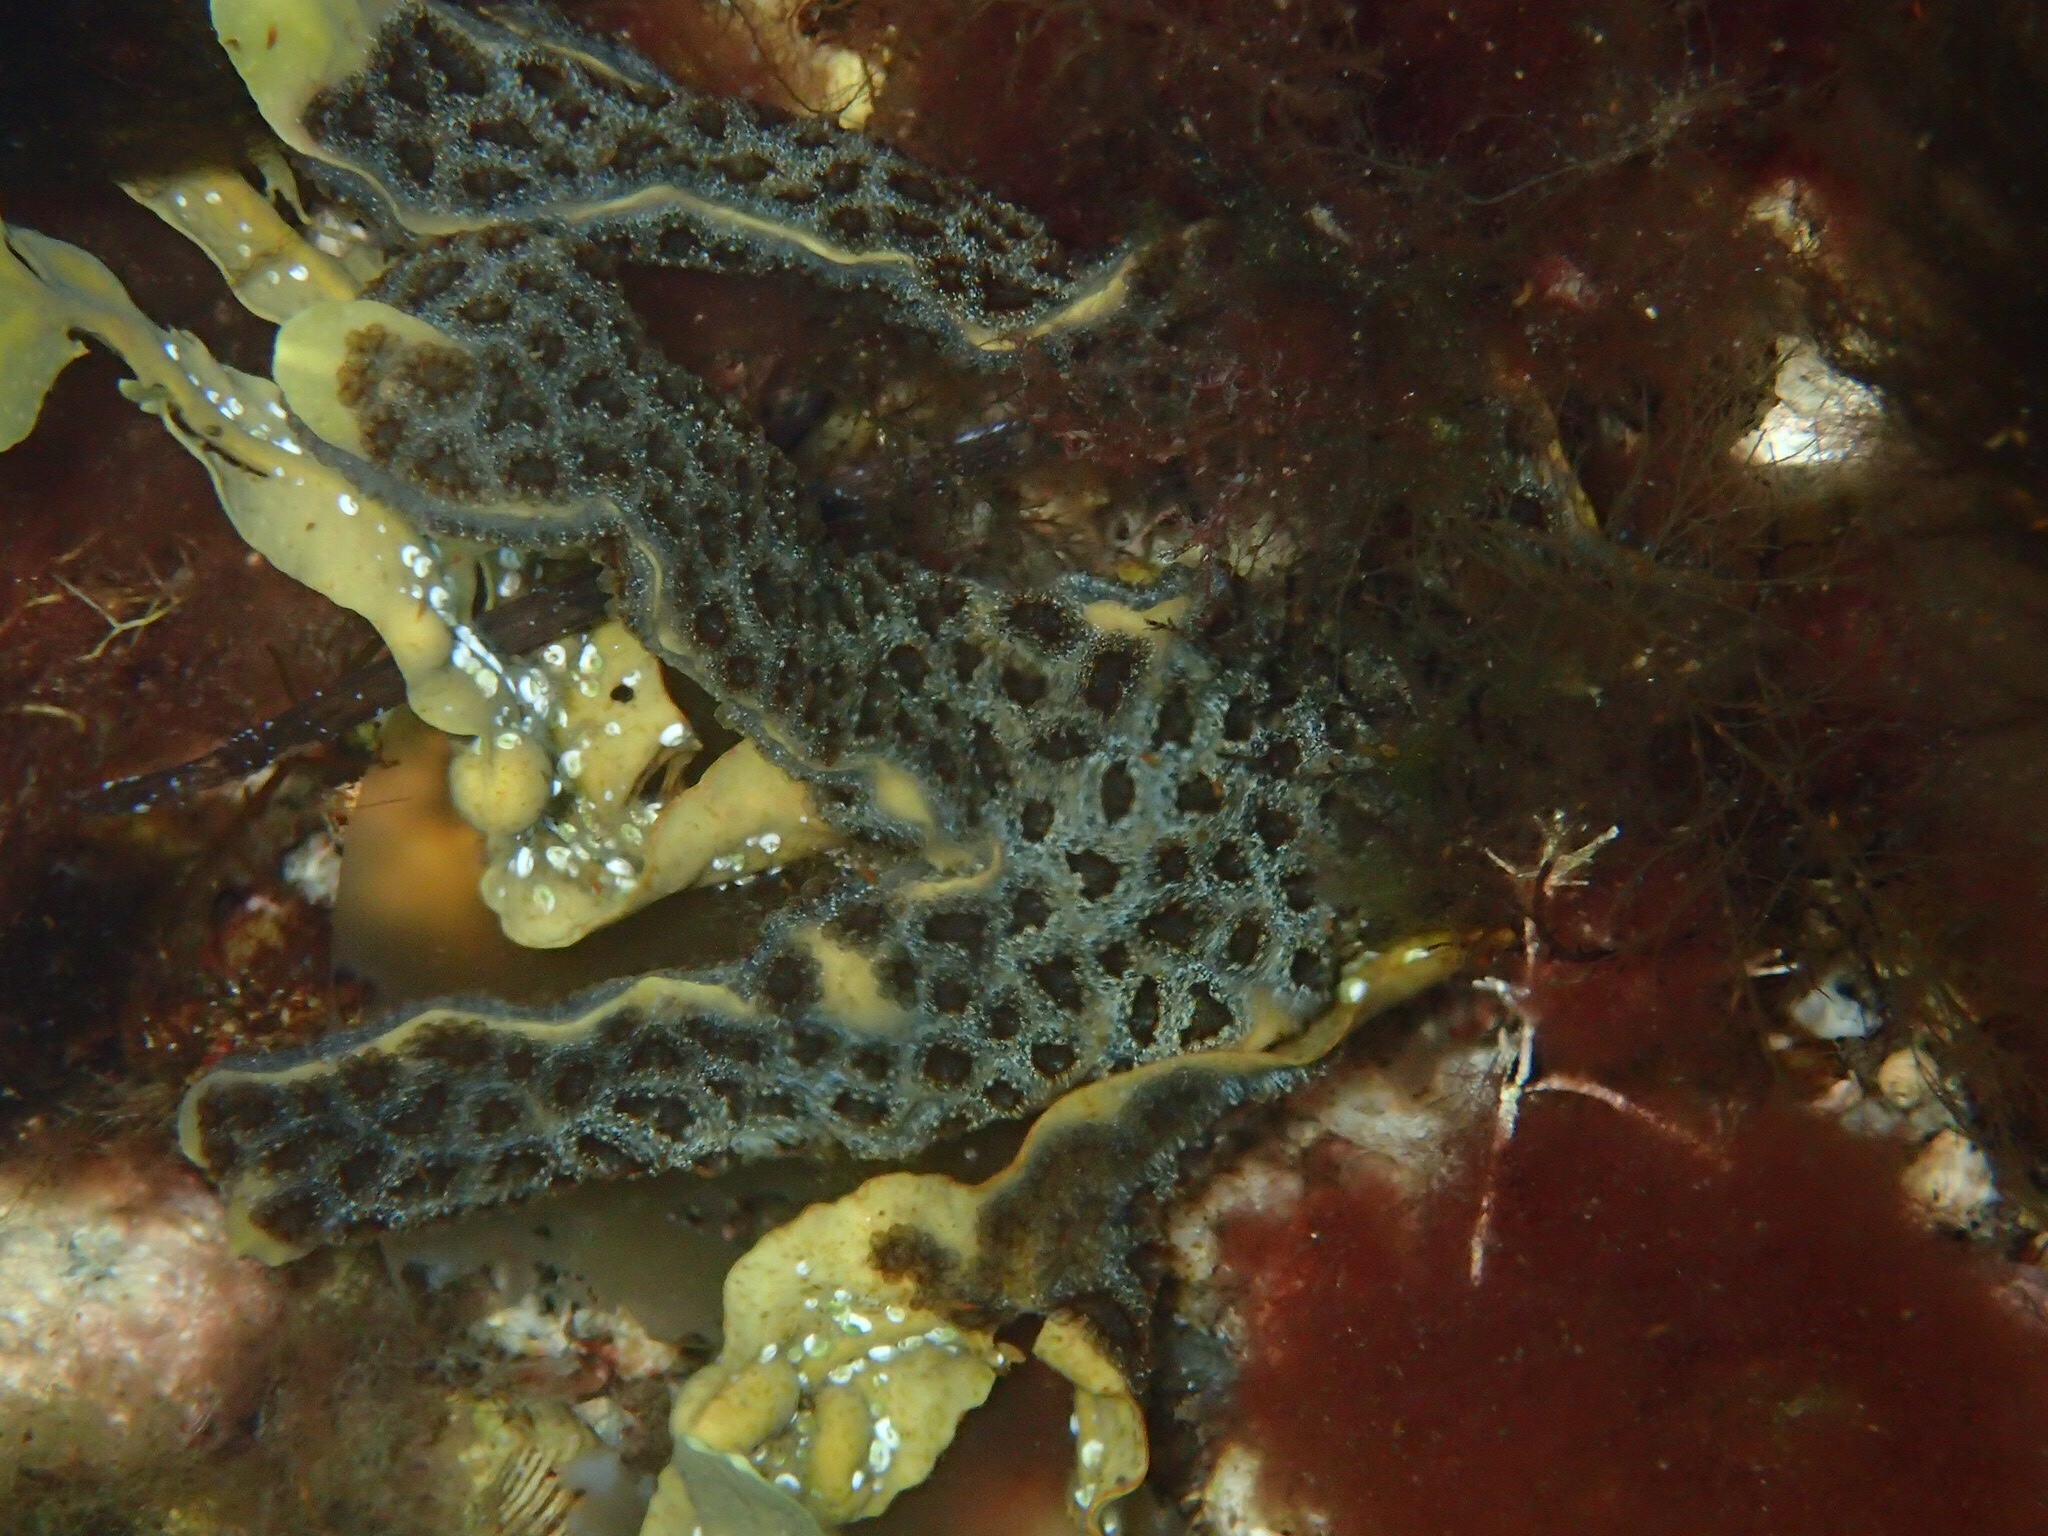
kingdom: Animalia
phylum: Chordata
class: Ascidiacea
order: Stolidobranchia
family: Styelidae
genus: Botryllus
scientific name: Botryllus schlosseri
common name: Golden star tunicate
